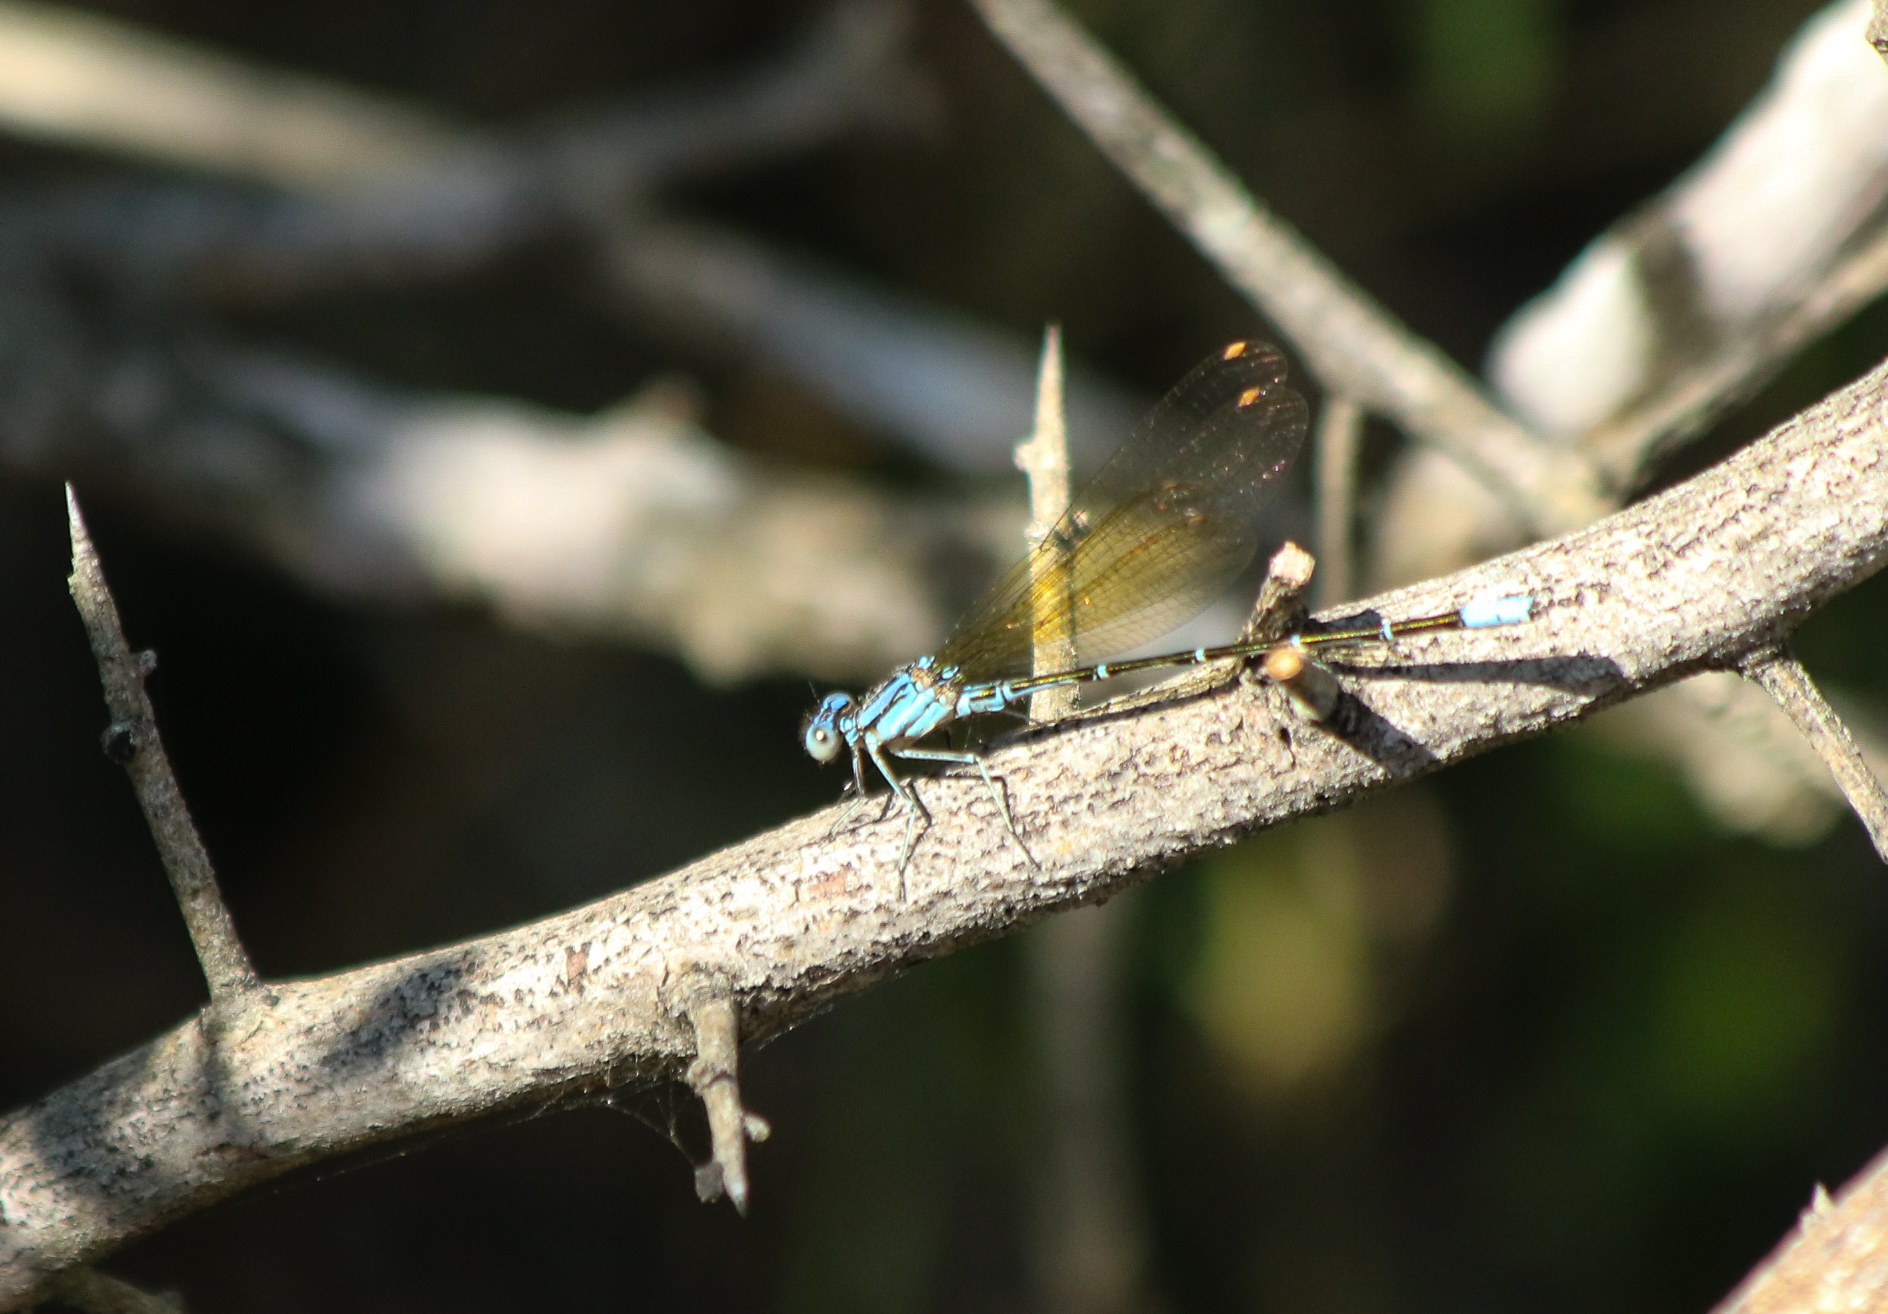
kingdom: Animalia
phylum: Arthropoda
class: Insecta
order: Odonata
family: Coenagrionidae
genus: Argia
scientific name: Argia rhoadsi
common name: Golden-winged dancer
